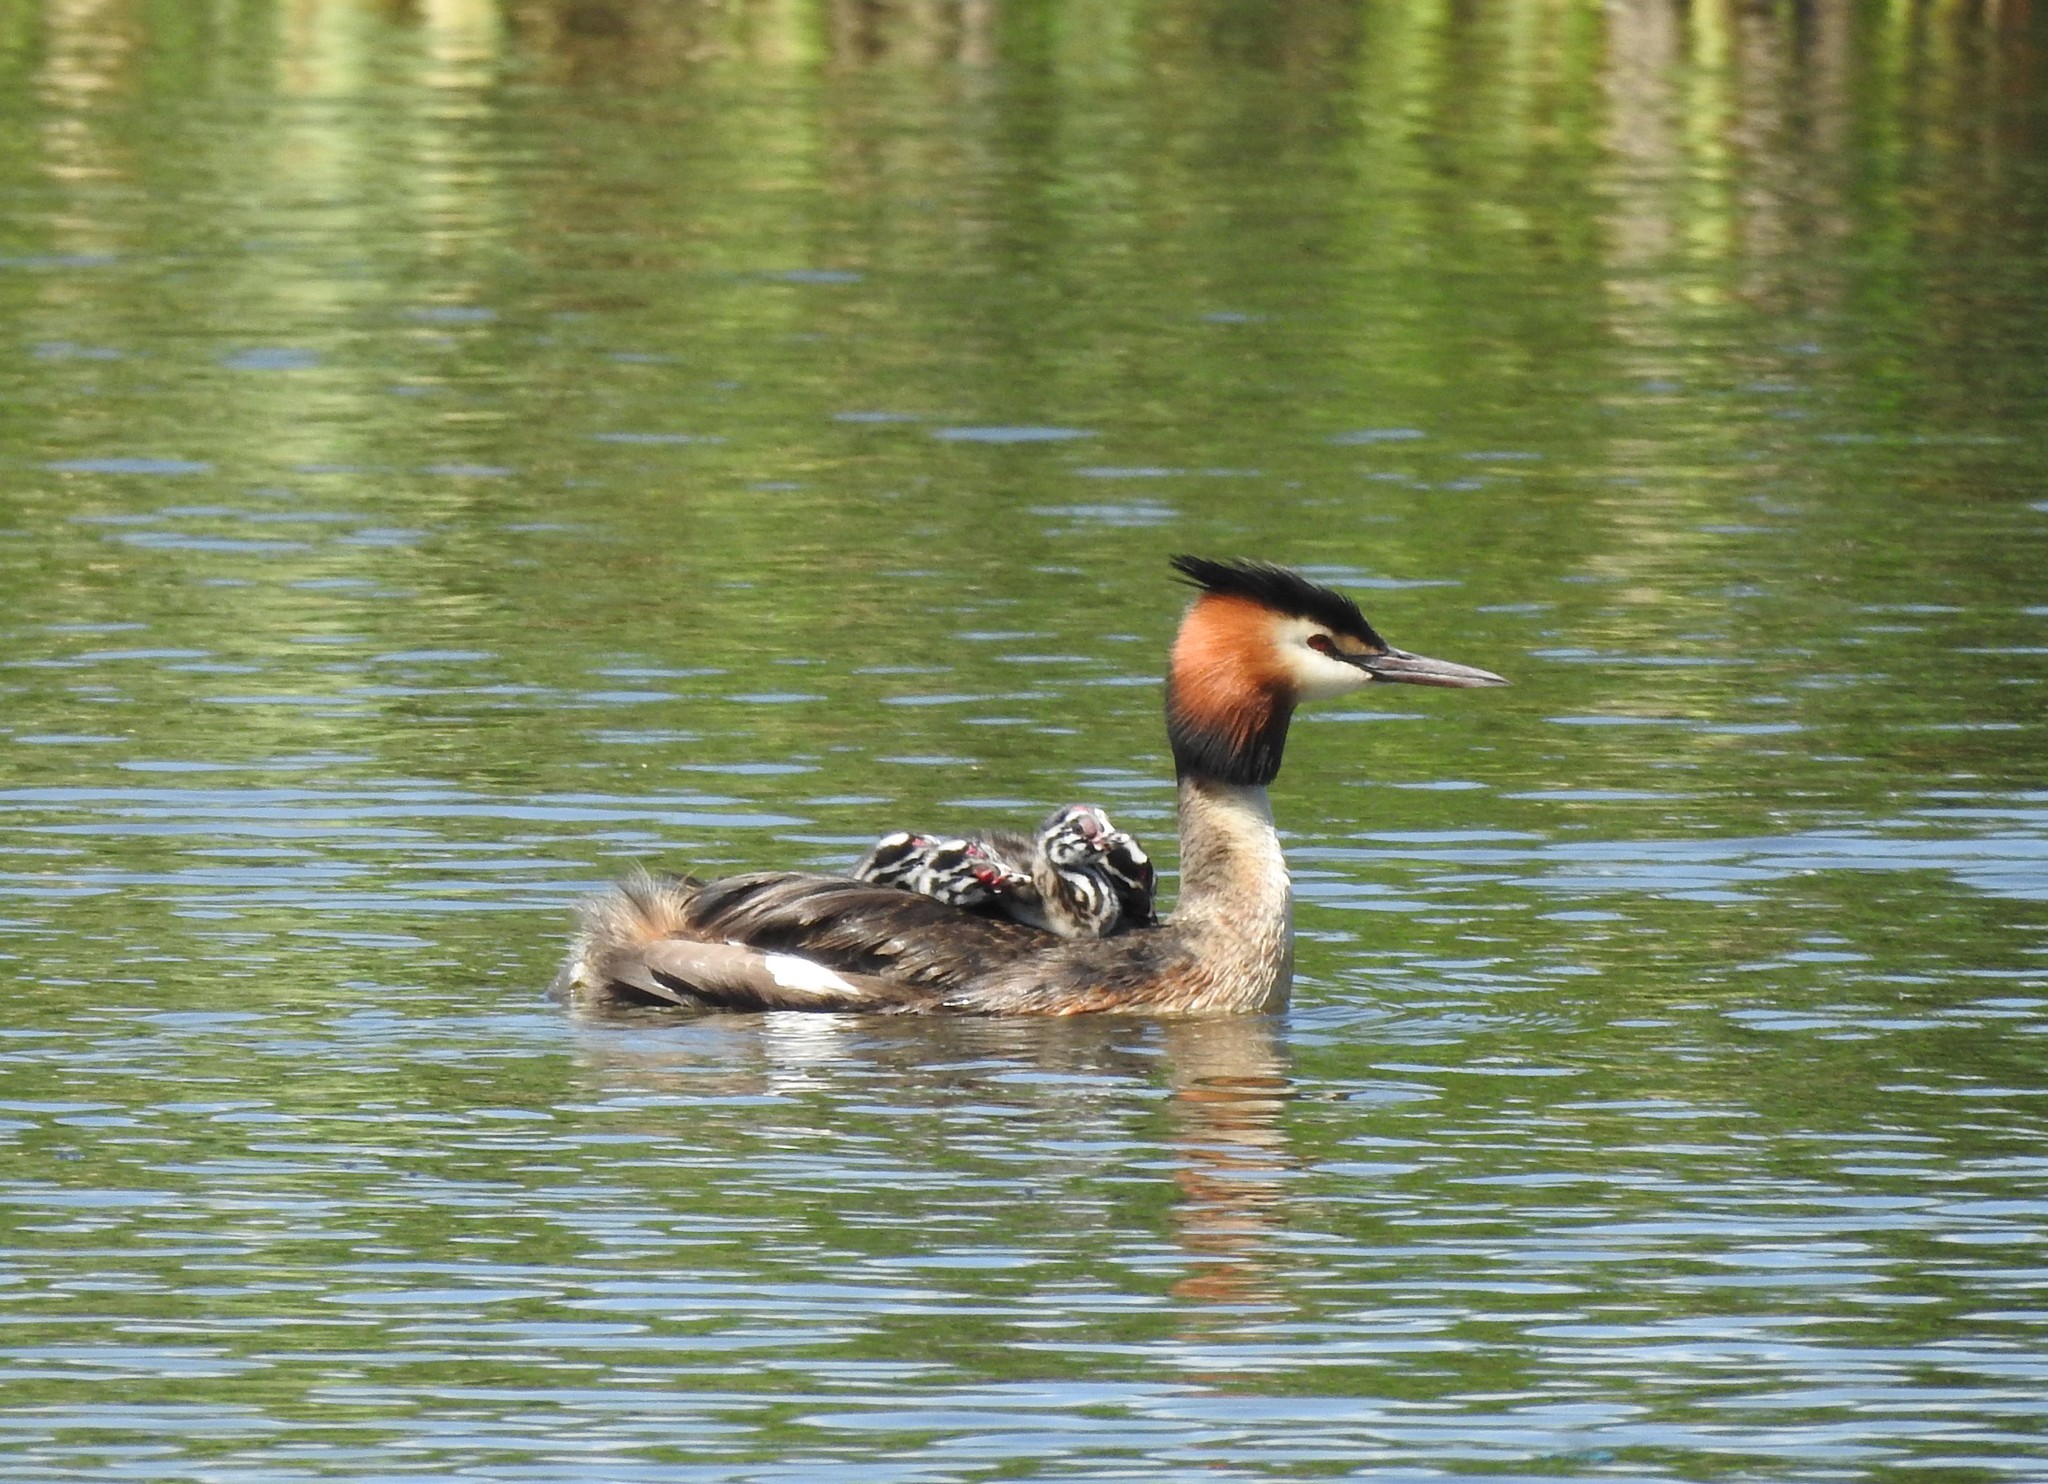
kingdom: Animalia
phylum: Chordata
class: Aves
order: Podicipediformes
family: Podicipedidae
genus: Podiceps
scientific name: Podiceps cristatus
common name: Great crested grebe
